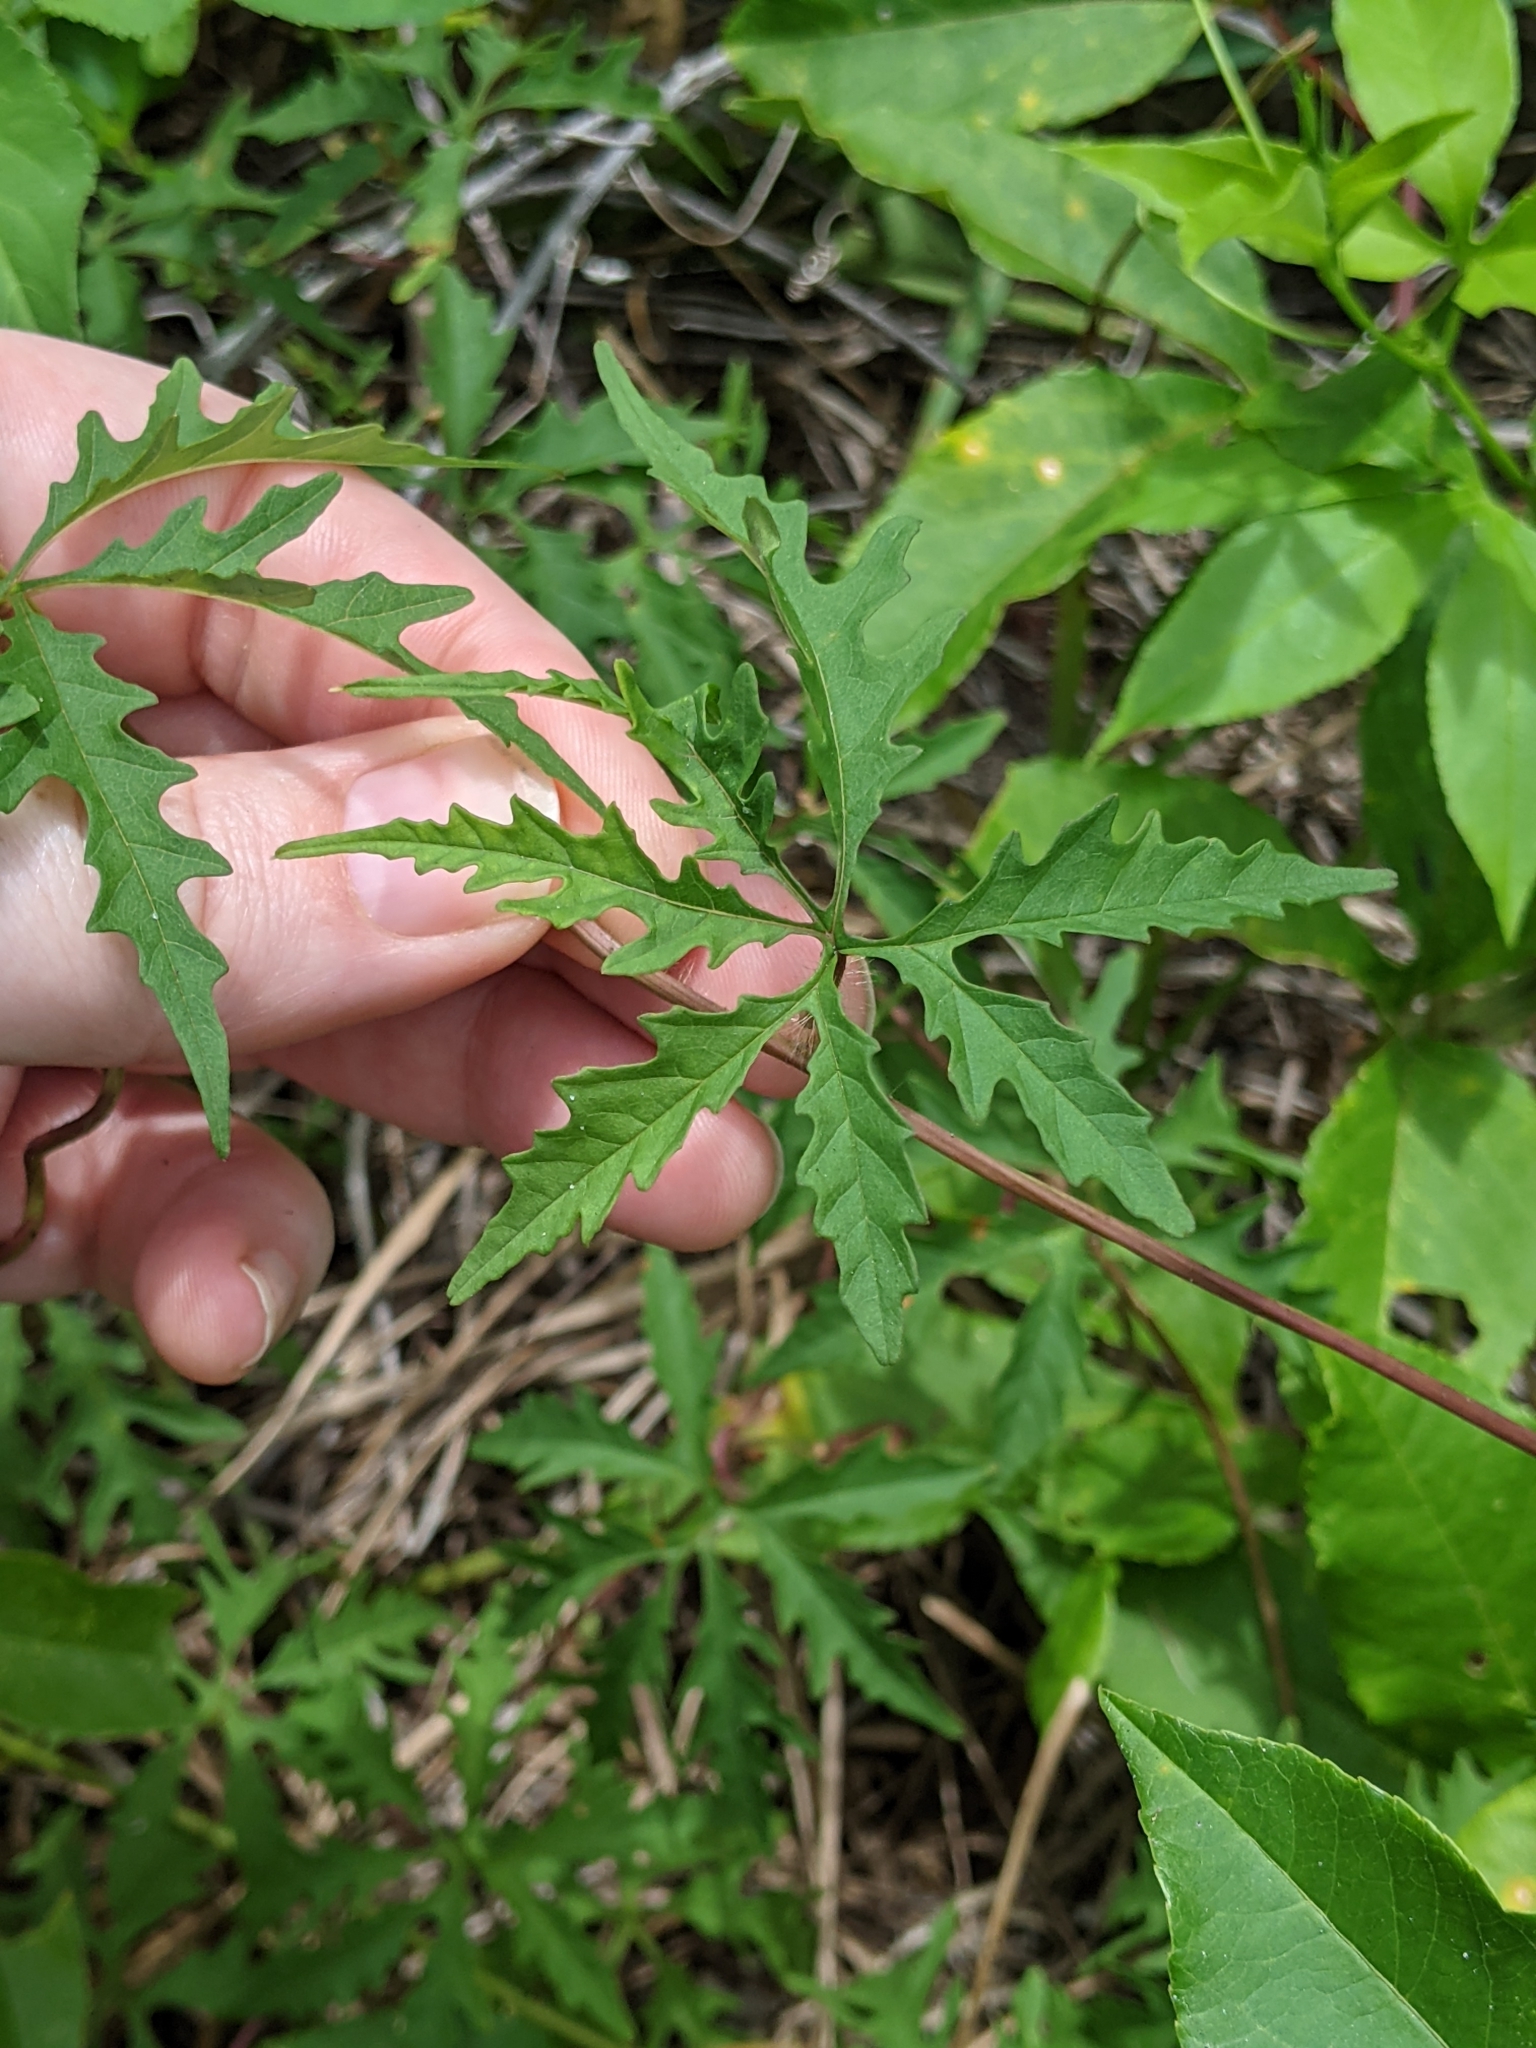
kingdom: Plantae
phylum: Tracheophyta
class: Magnoliopsida
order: Solanales
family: Convolvulaceae
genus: Distimake
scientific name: Distimake dissectus
